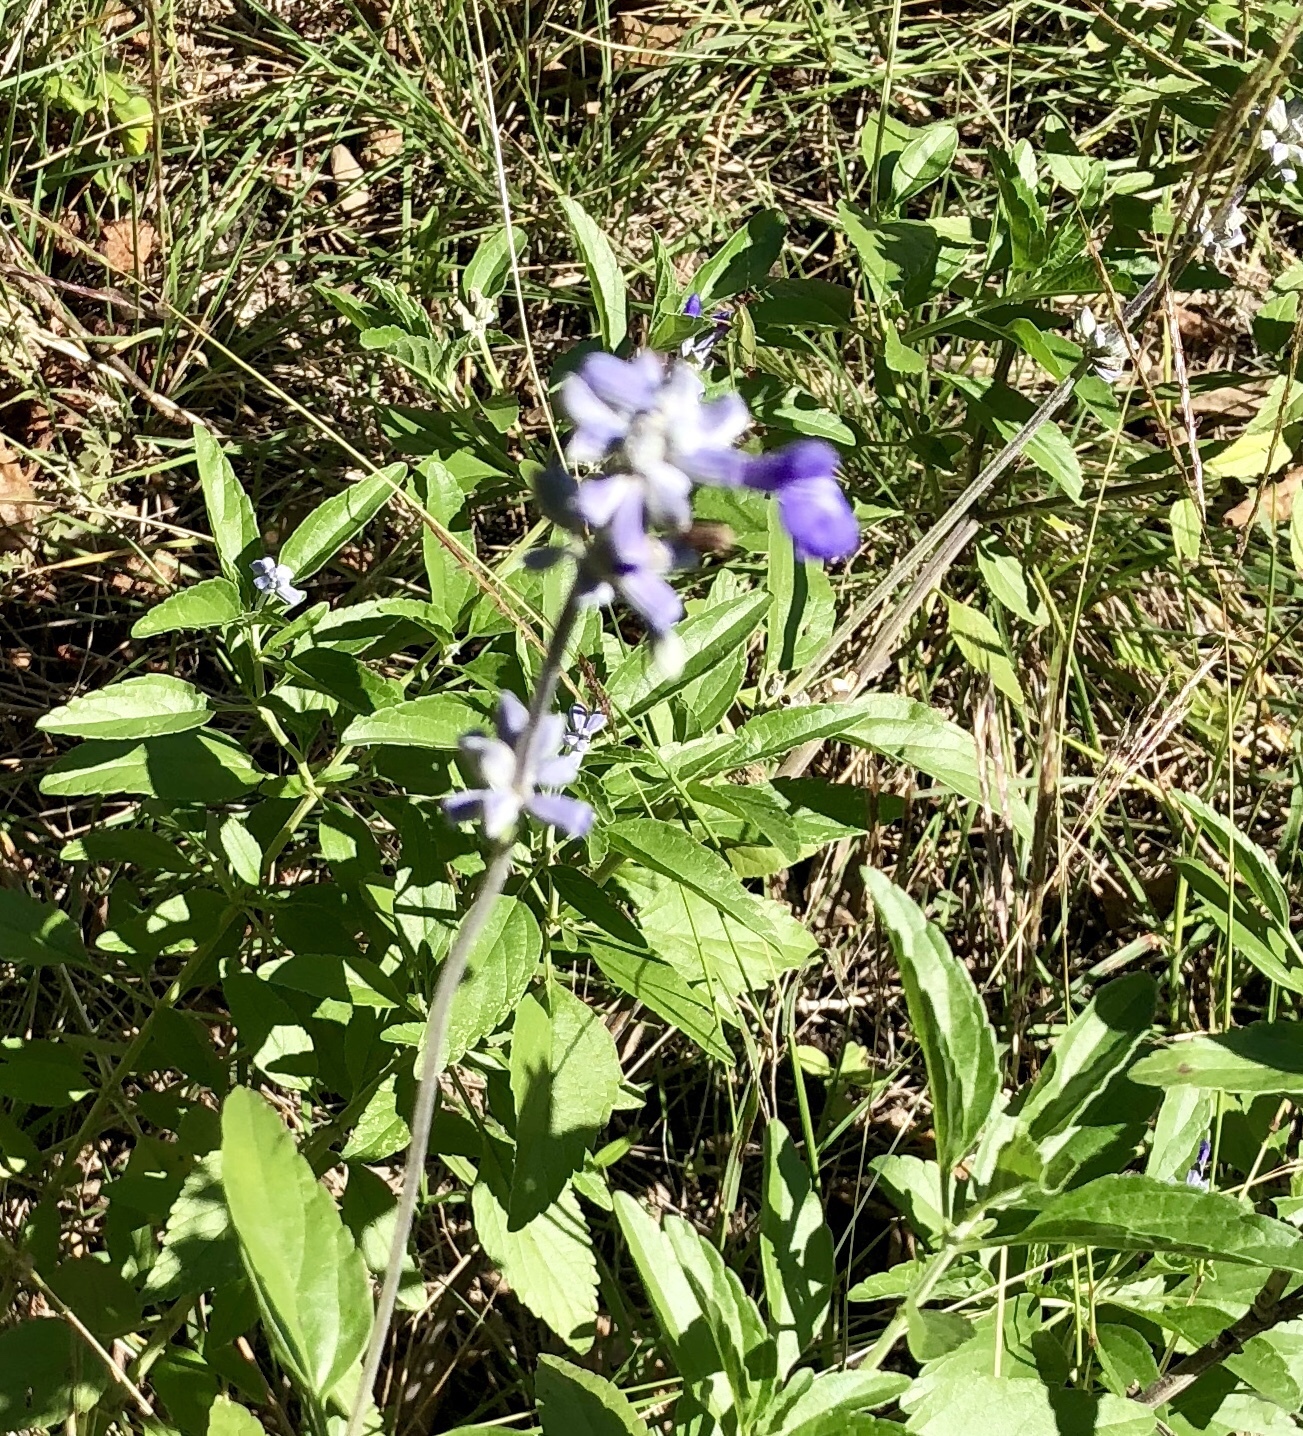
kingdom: Plantae
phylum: Tracheophyta
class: Magnoliopsida
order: Lamiales
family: Lamiaceae
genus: Salvia
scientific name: Salvia farinacea
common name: Mealy sage
